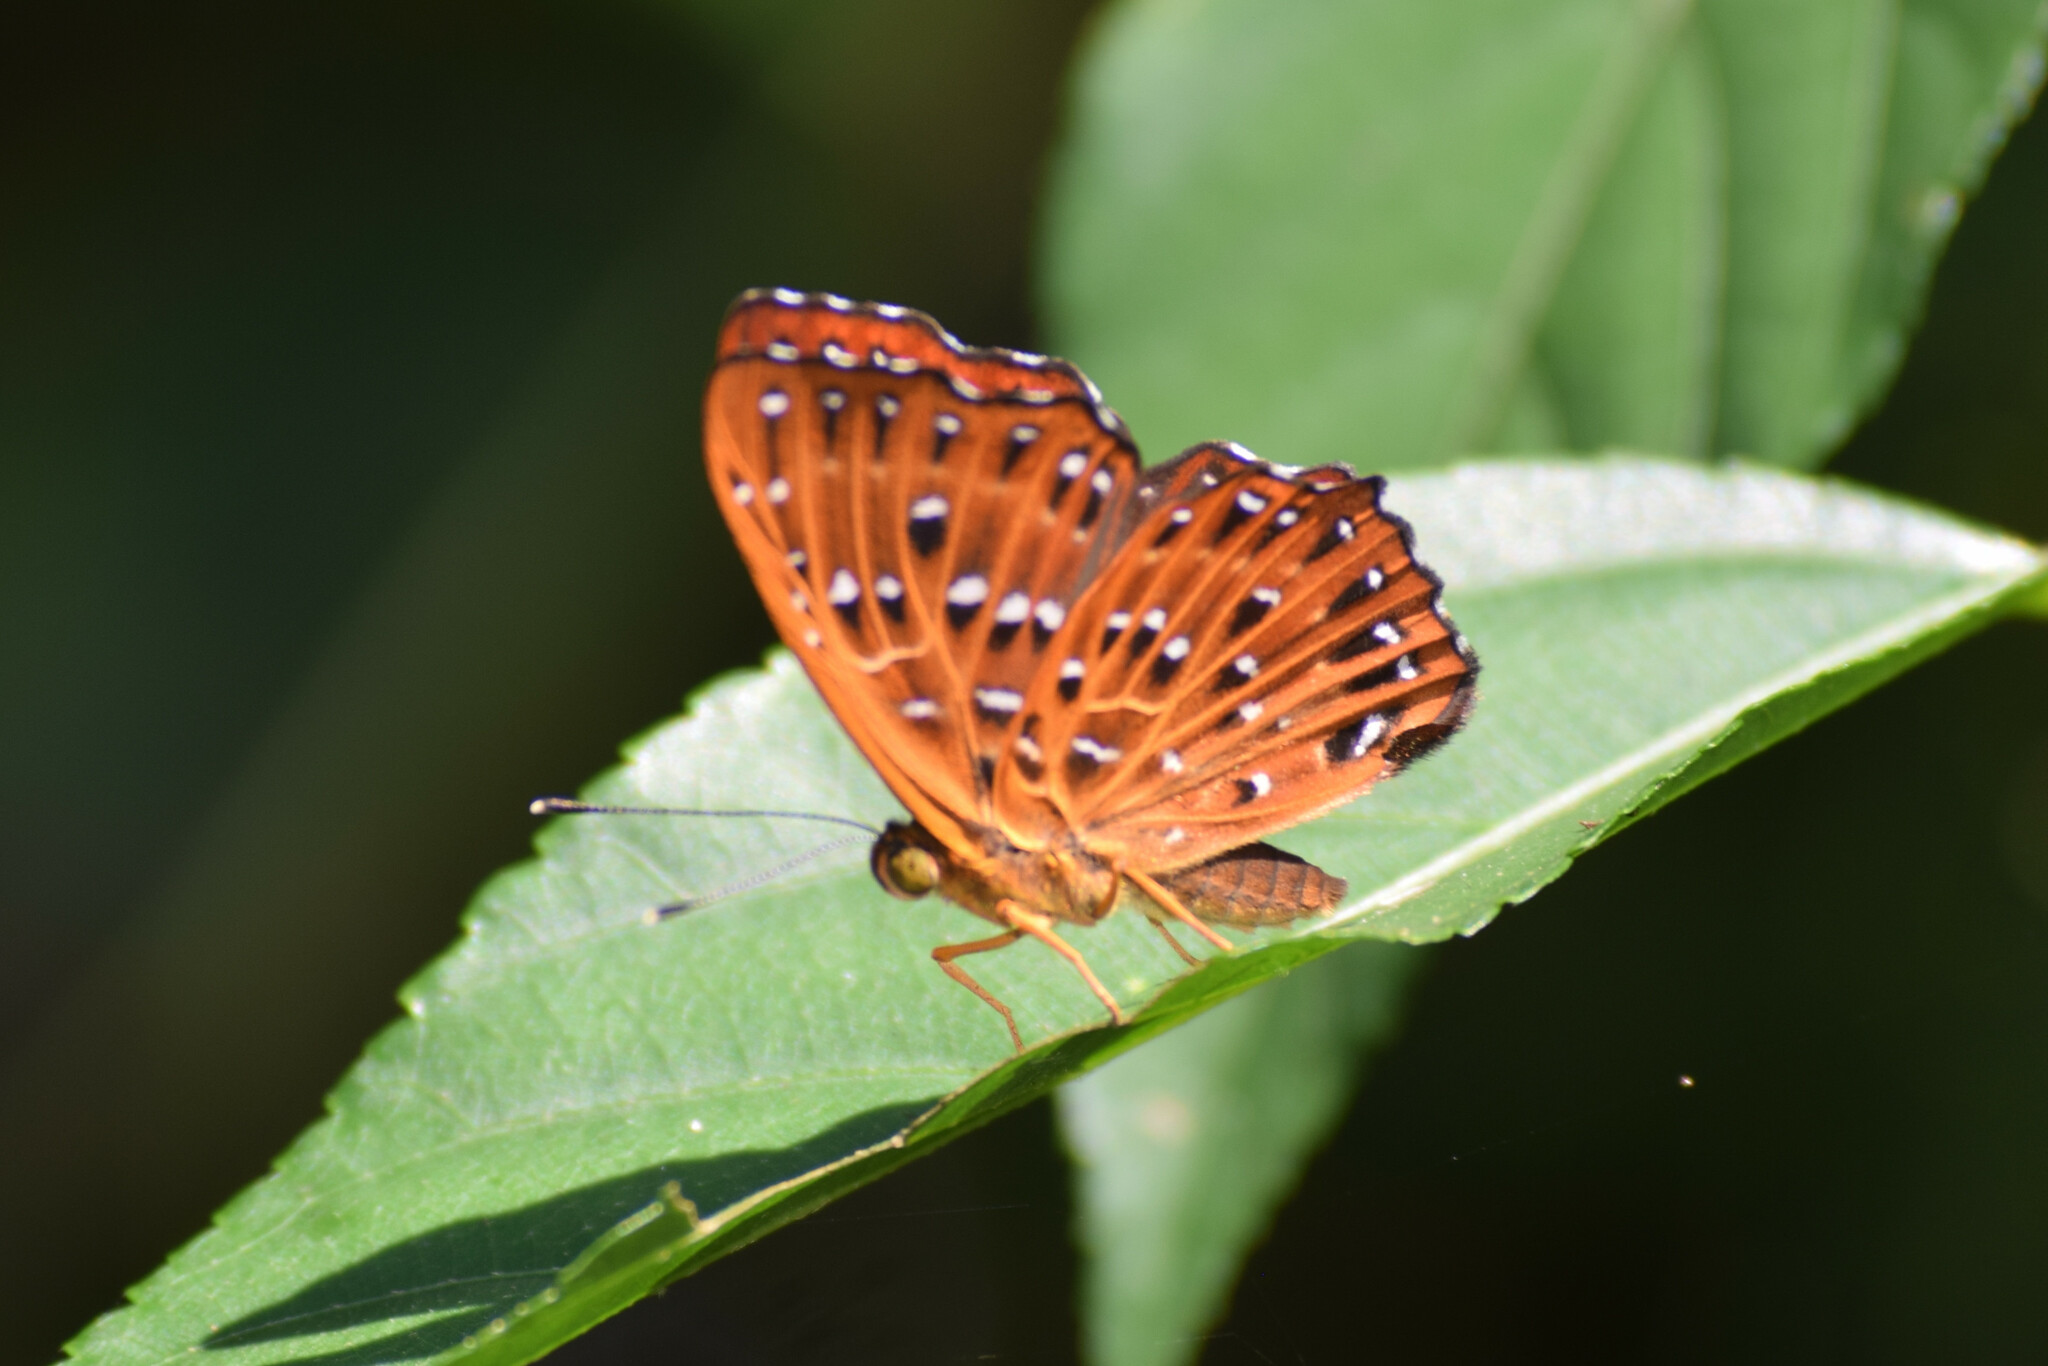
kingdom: Animalia
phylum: Arthropoda
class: Insecta
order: Lepidoptera
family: Riodinidae
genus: Zemeros
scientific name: Zemeros flegyas
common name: Punchinello
